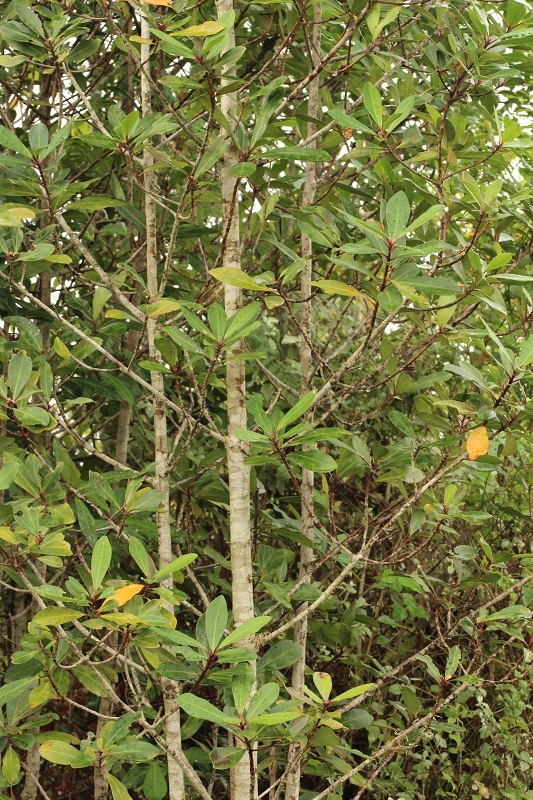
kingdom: Plantae
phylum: Tracheophyta
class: Magnoliopsida
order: Ericales
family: Primulaceae
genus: Myrsine
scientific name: Myrsine melanophloeos
